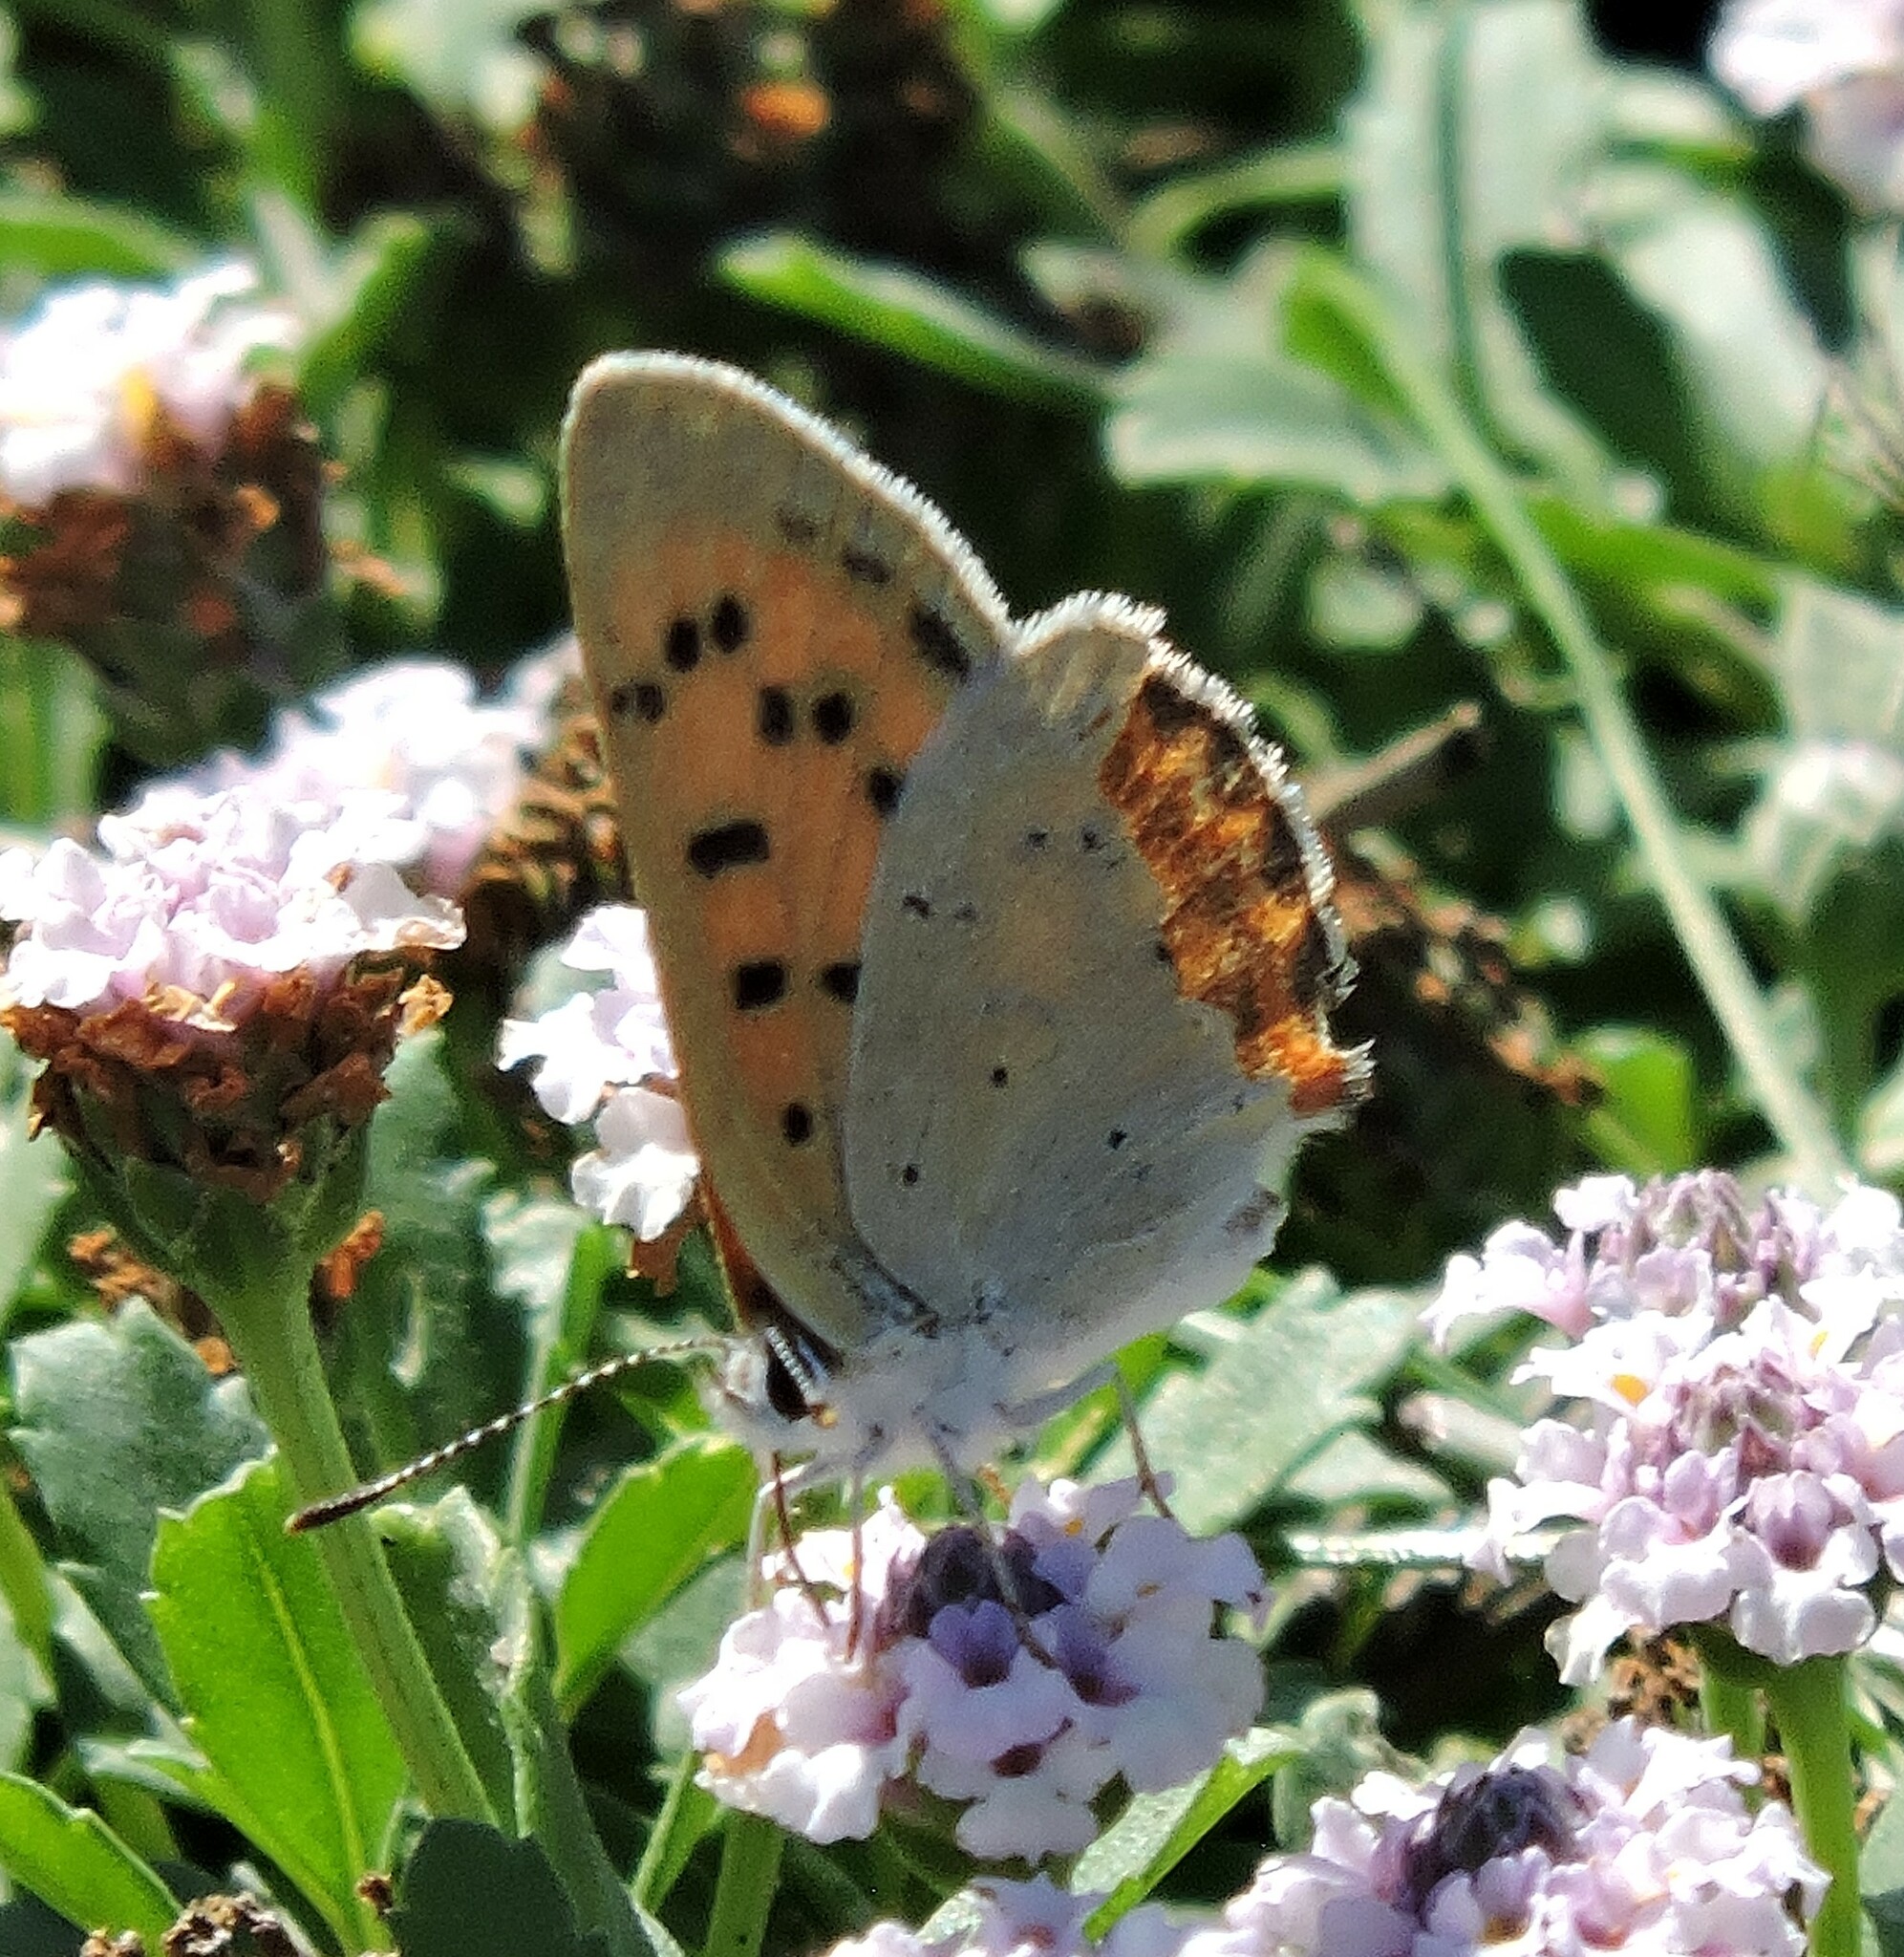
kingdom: Animalia
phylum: Arthropoda
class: Insecta
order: Lepidoptera
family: Lycaenidae
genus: Tharsalea
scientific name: Tharsalea helloides
